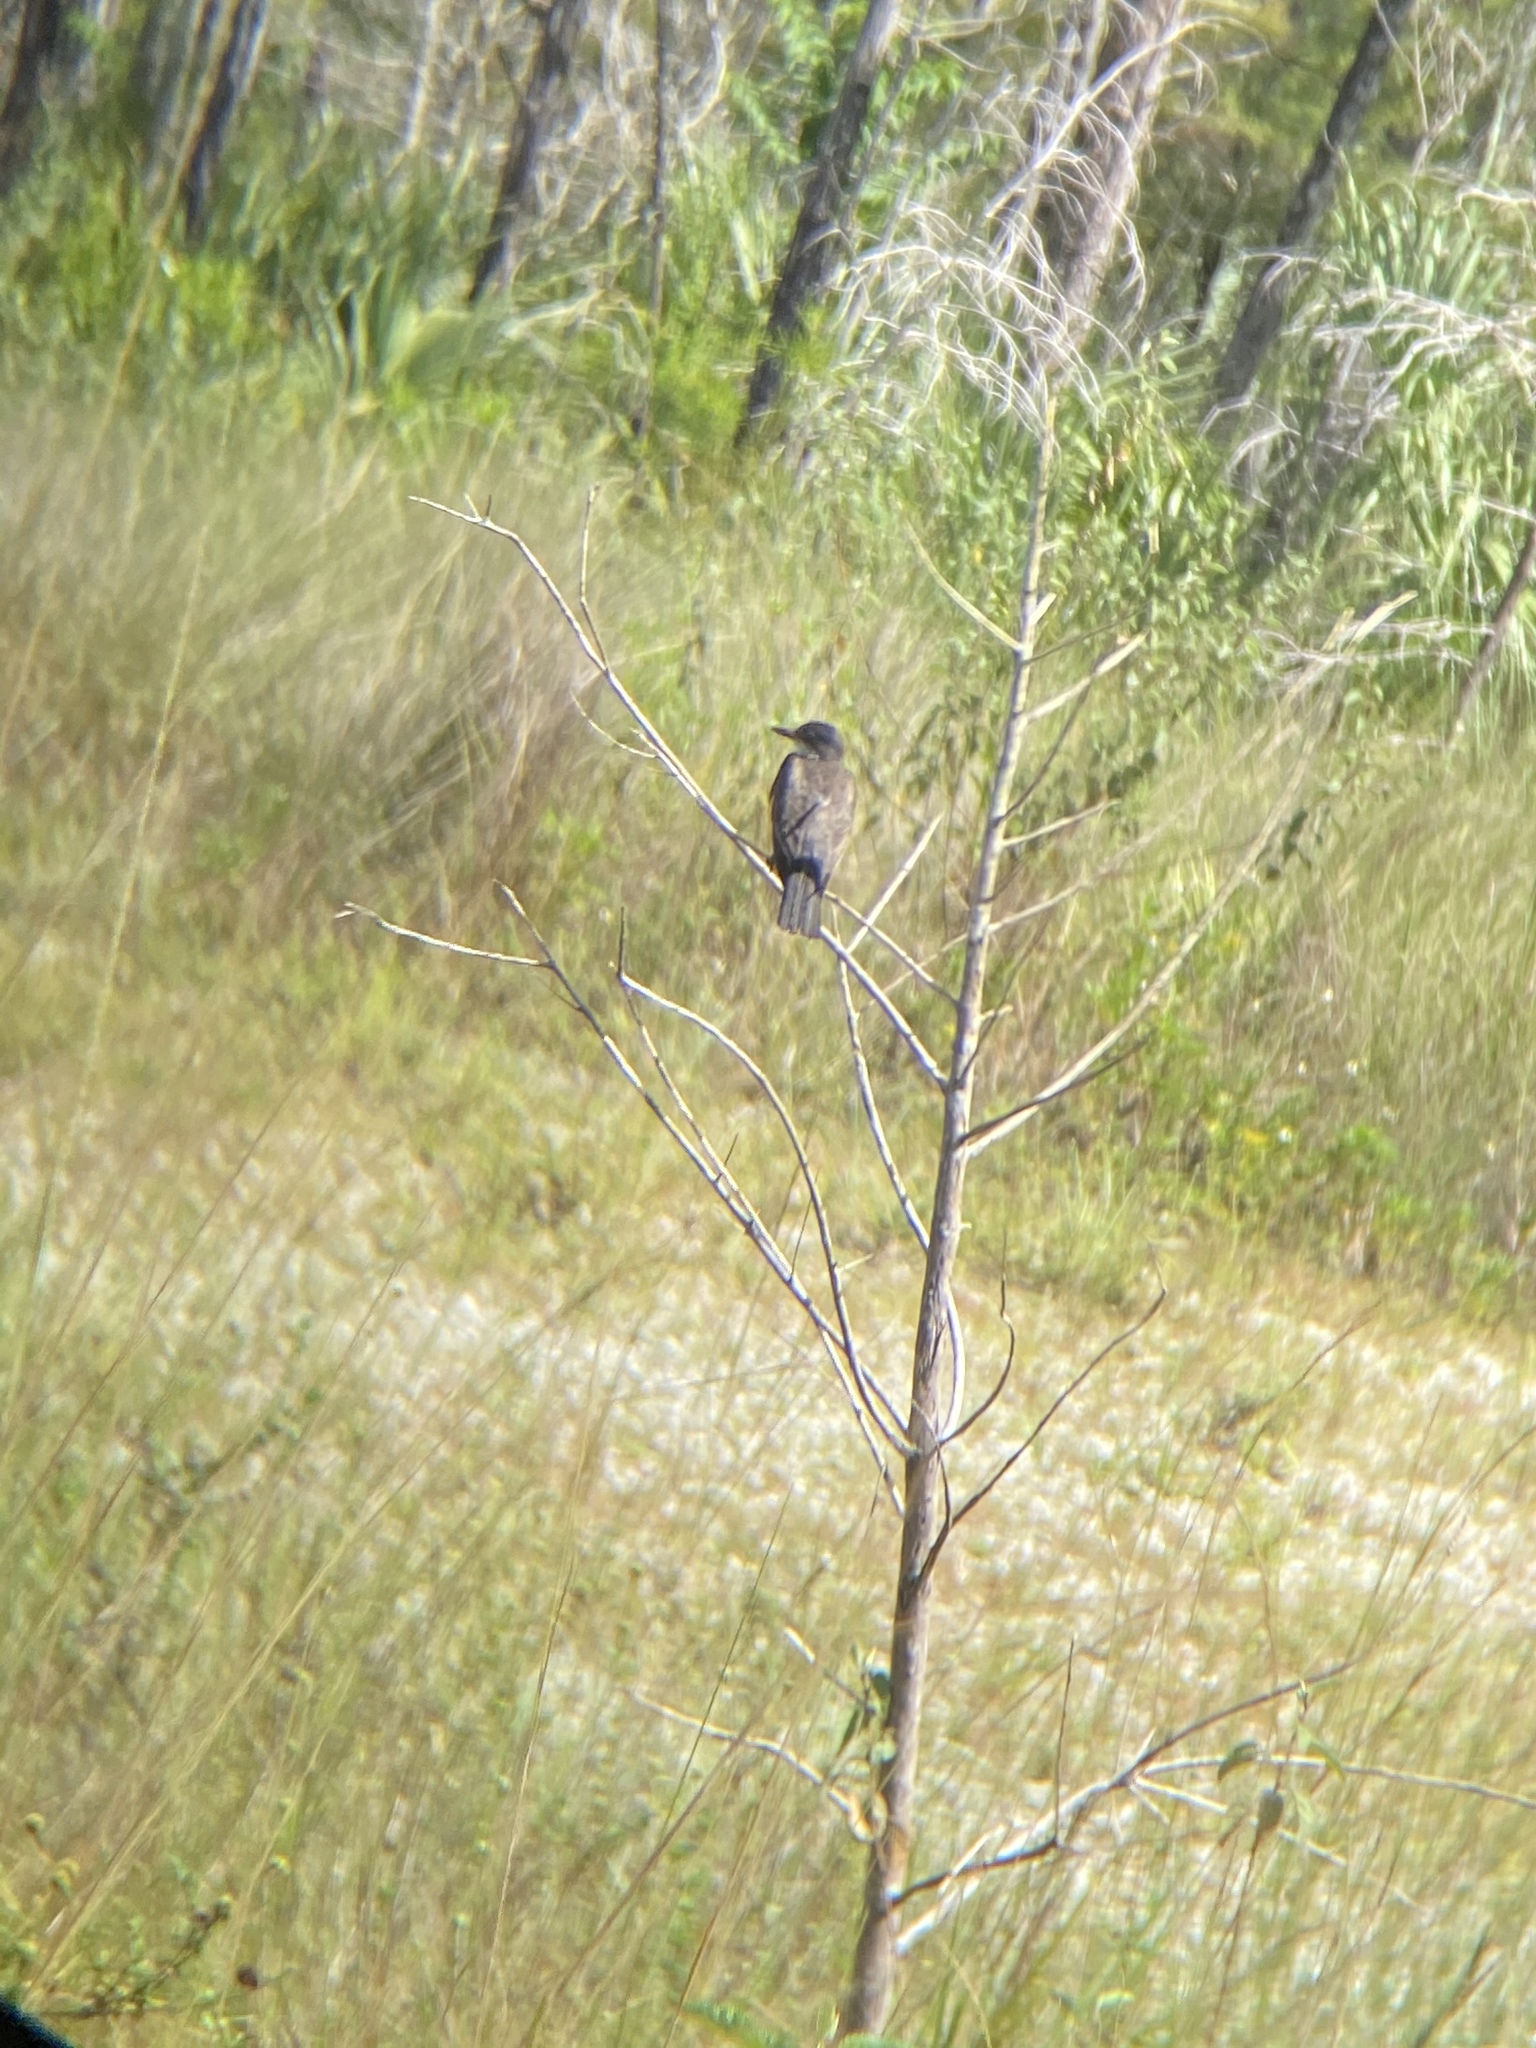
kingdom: Animalia
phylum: Chordata
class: Aves
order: Passeriformes
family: Tyrannidae
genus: Tyrannus
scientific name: Tyrannus tyrannus
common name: Eastern kingbird
